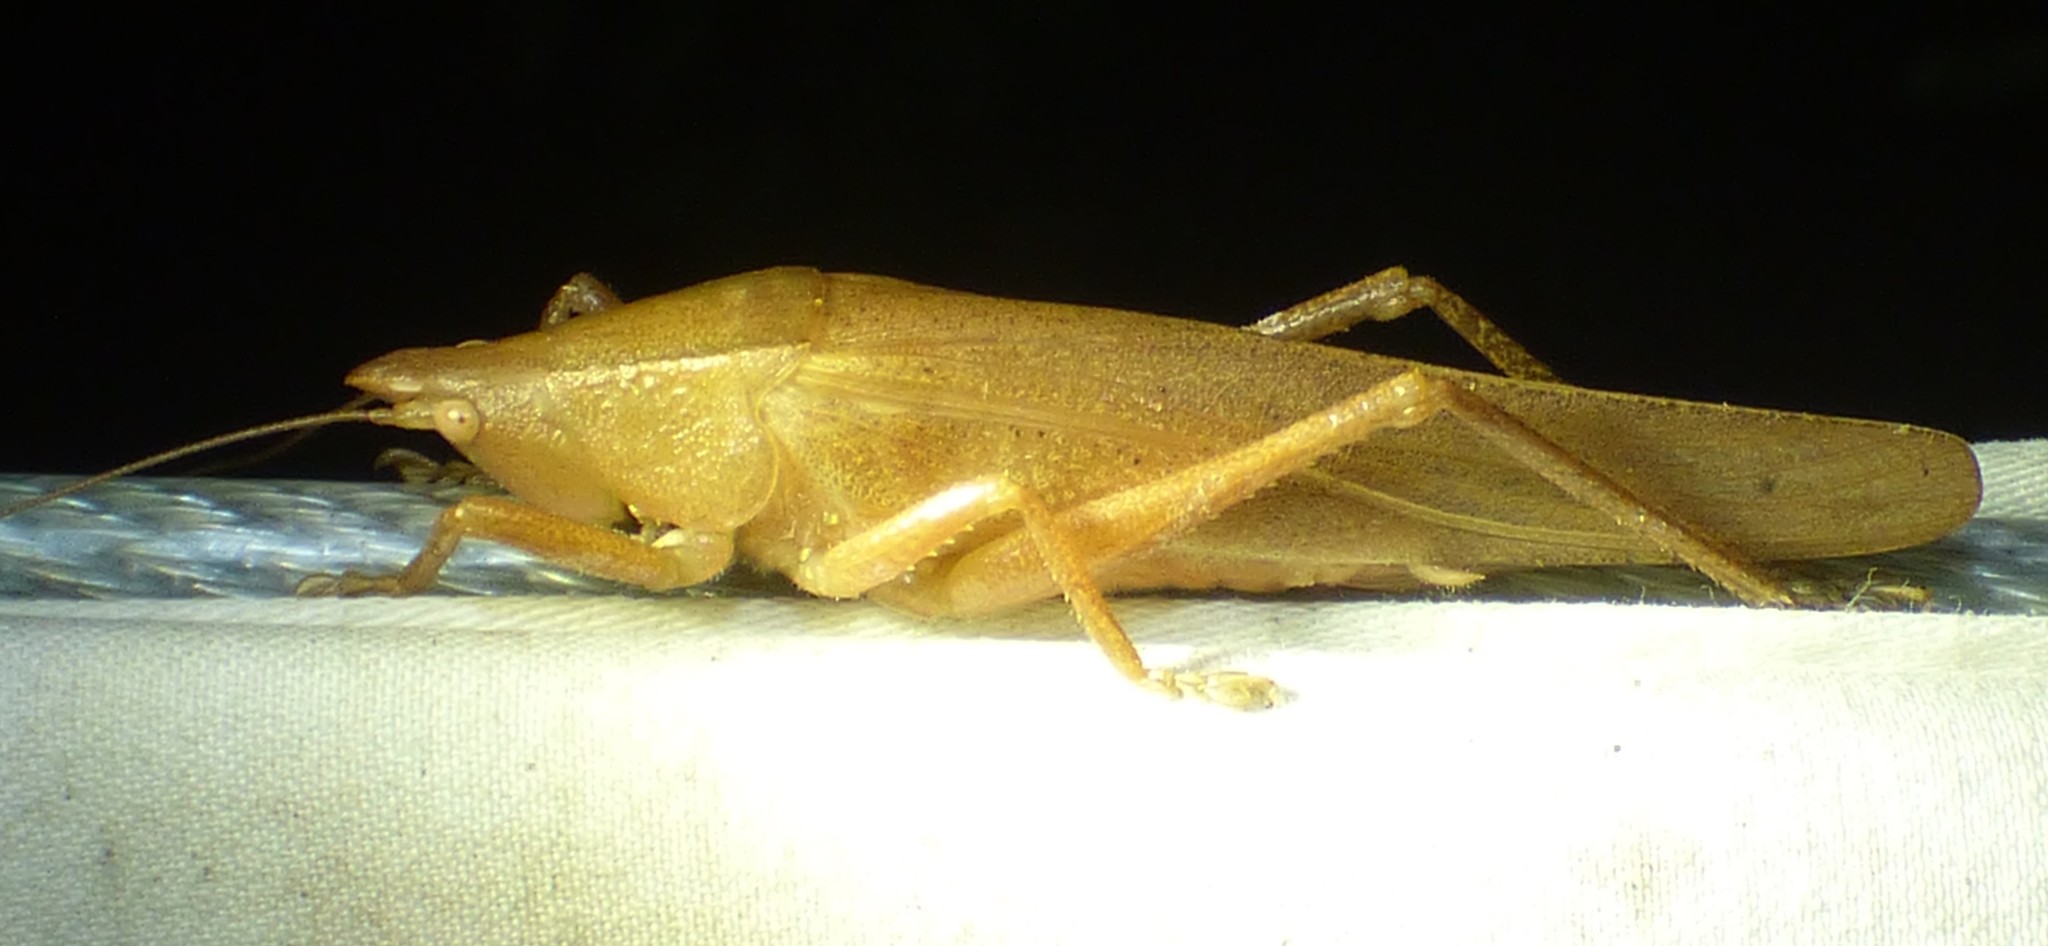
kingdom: Animalia
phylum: Arthropoda
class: Insecta
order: Orthoptera
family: Tettigoniidae
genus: Pyrgocorypha
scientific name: Pyrgocorypha uncinata
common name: Hook-faced conehead
